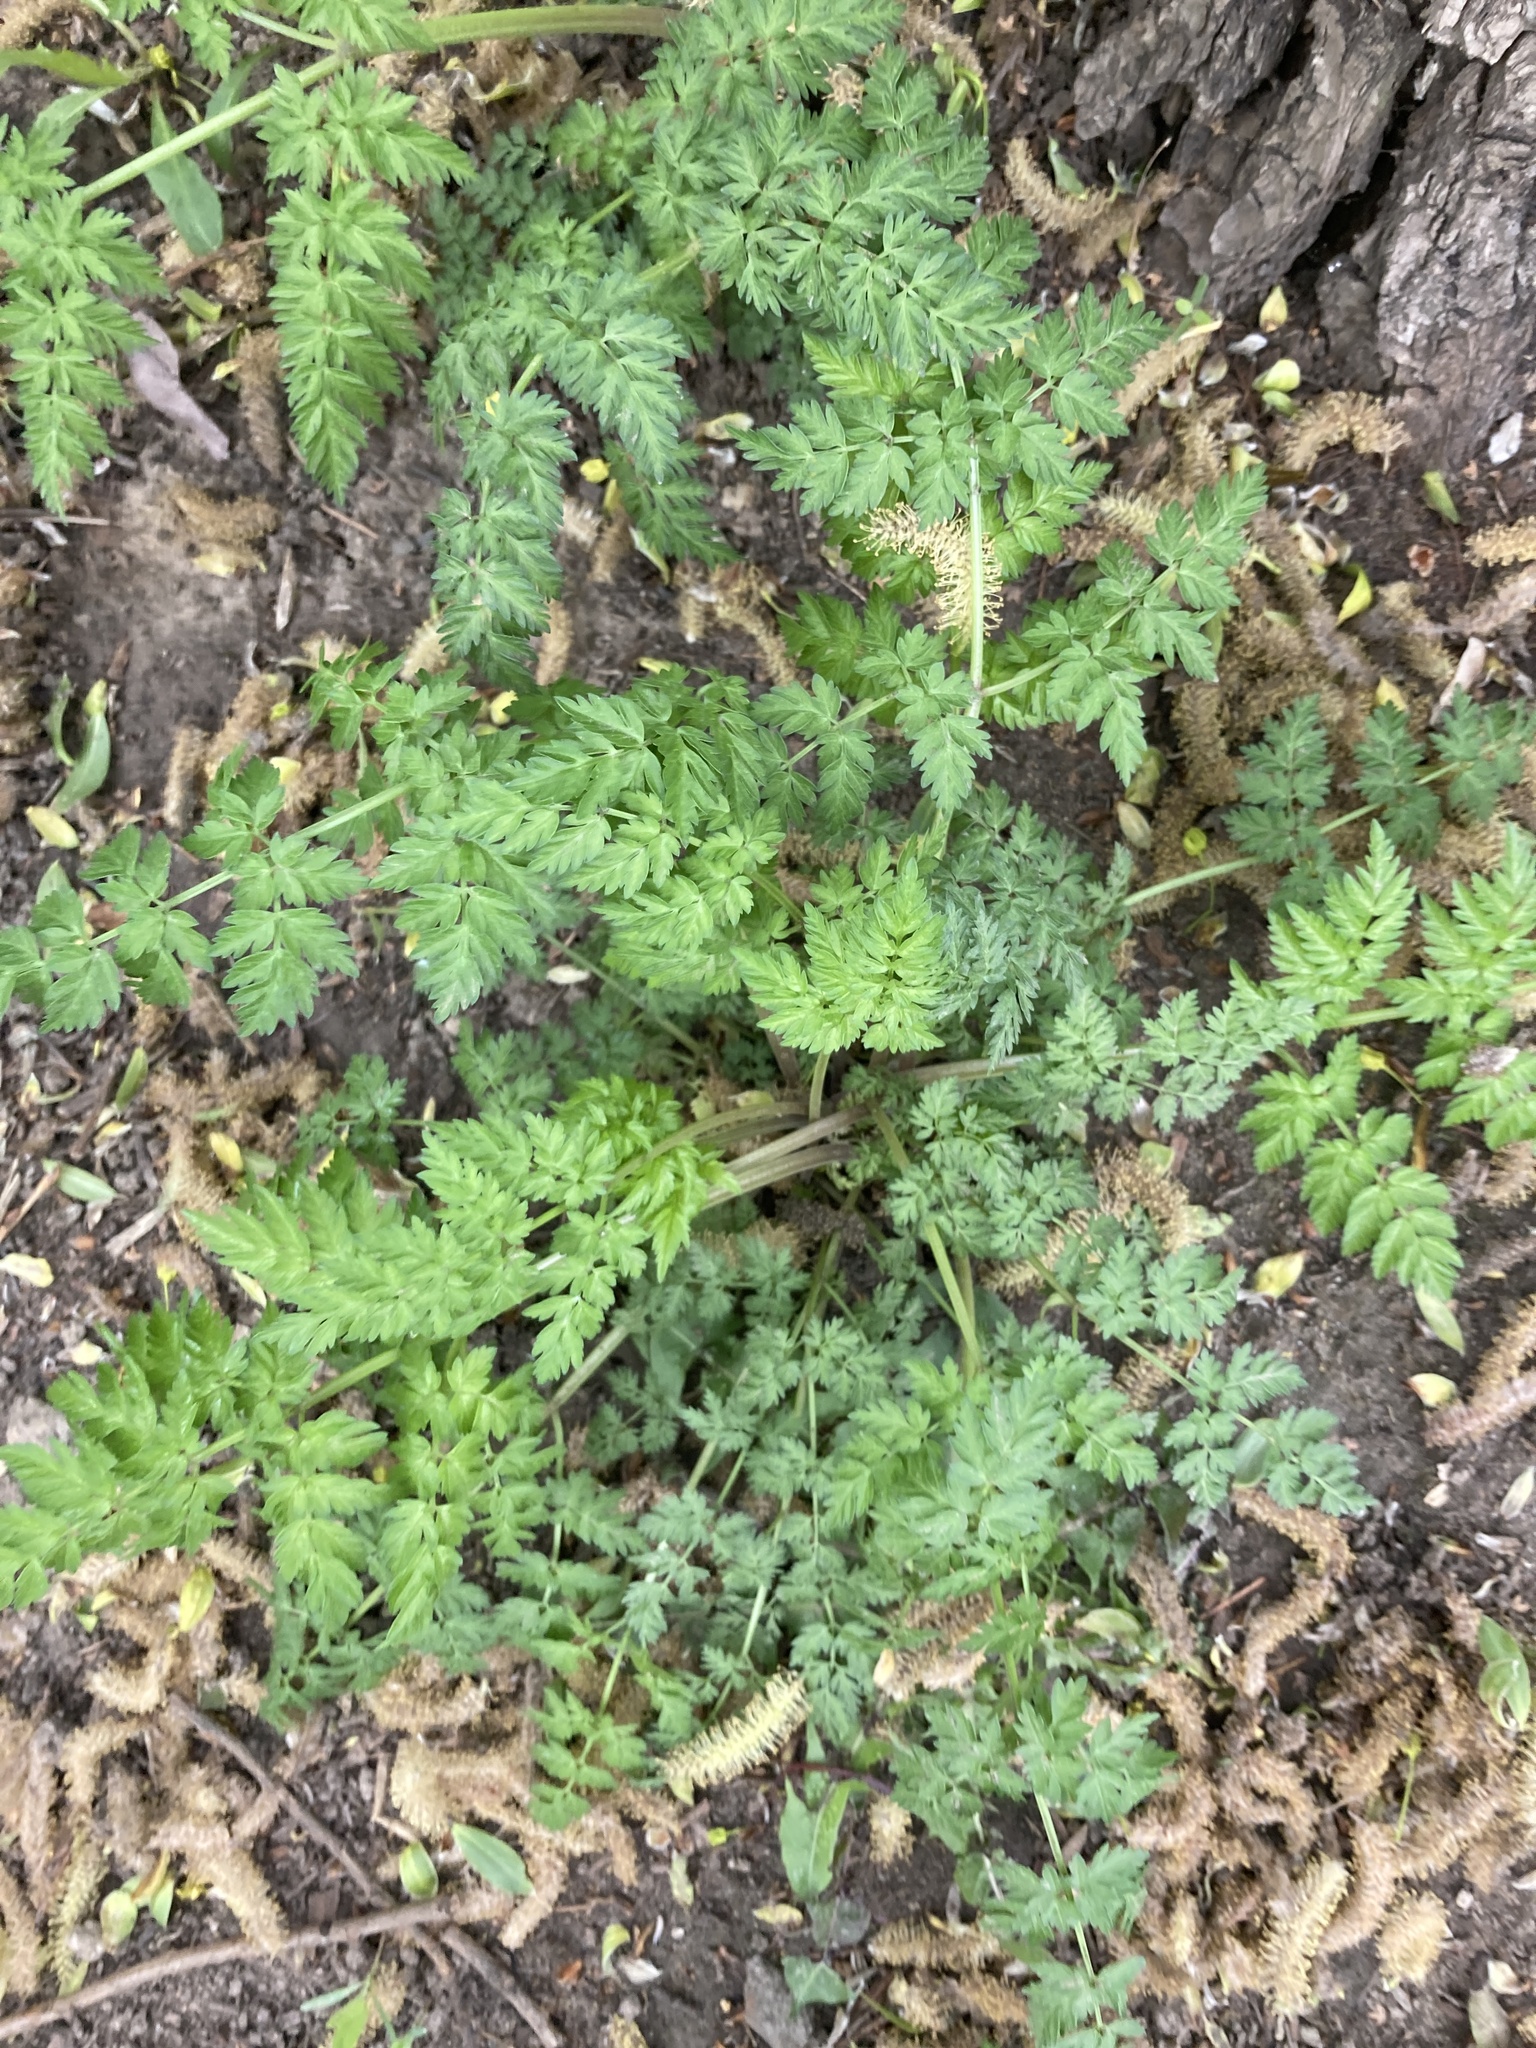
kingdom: Plantae
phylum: Tracheophyta
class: Magnoliopsida
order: Apiales
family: Apiaceae
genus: Anthriscus
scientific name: Anthriscus sylvestris
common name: Cow parsley
